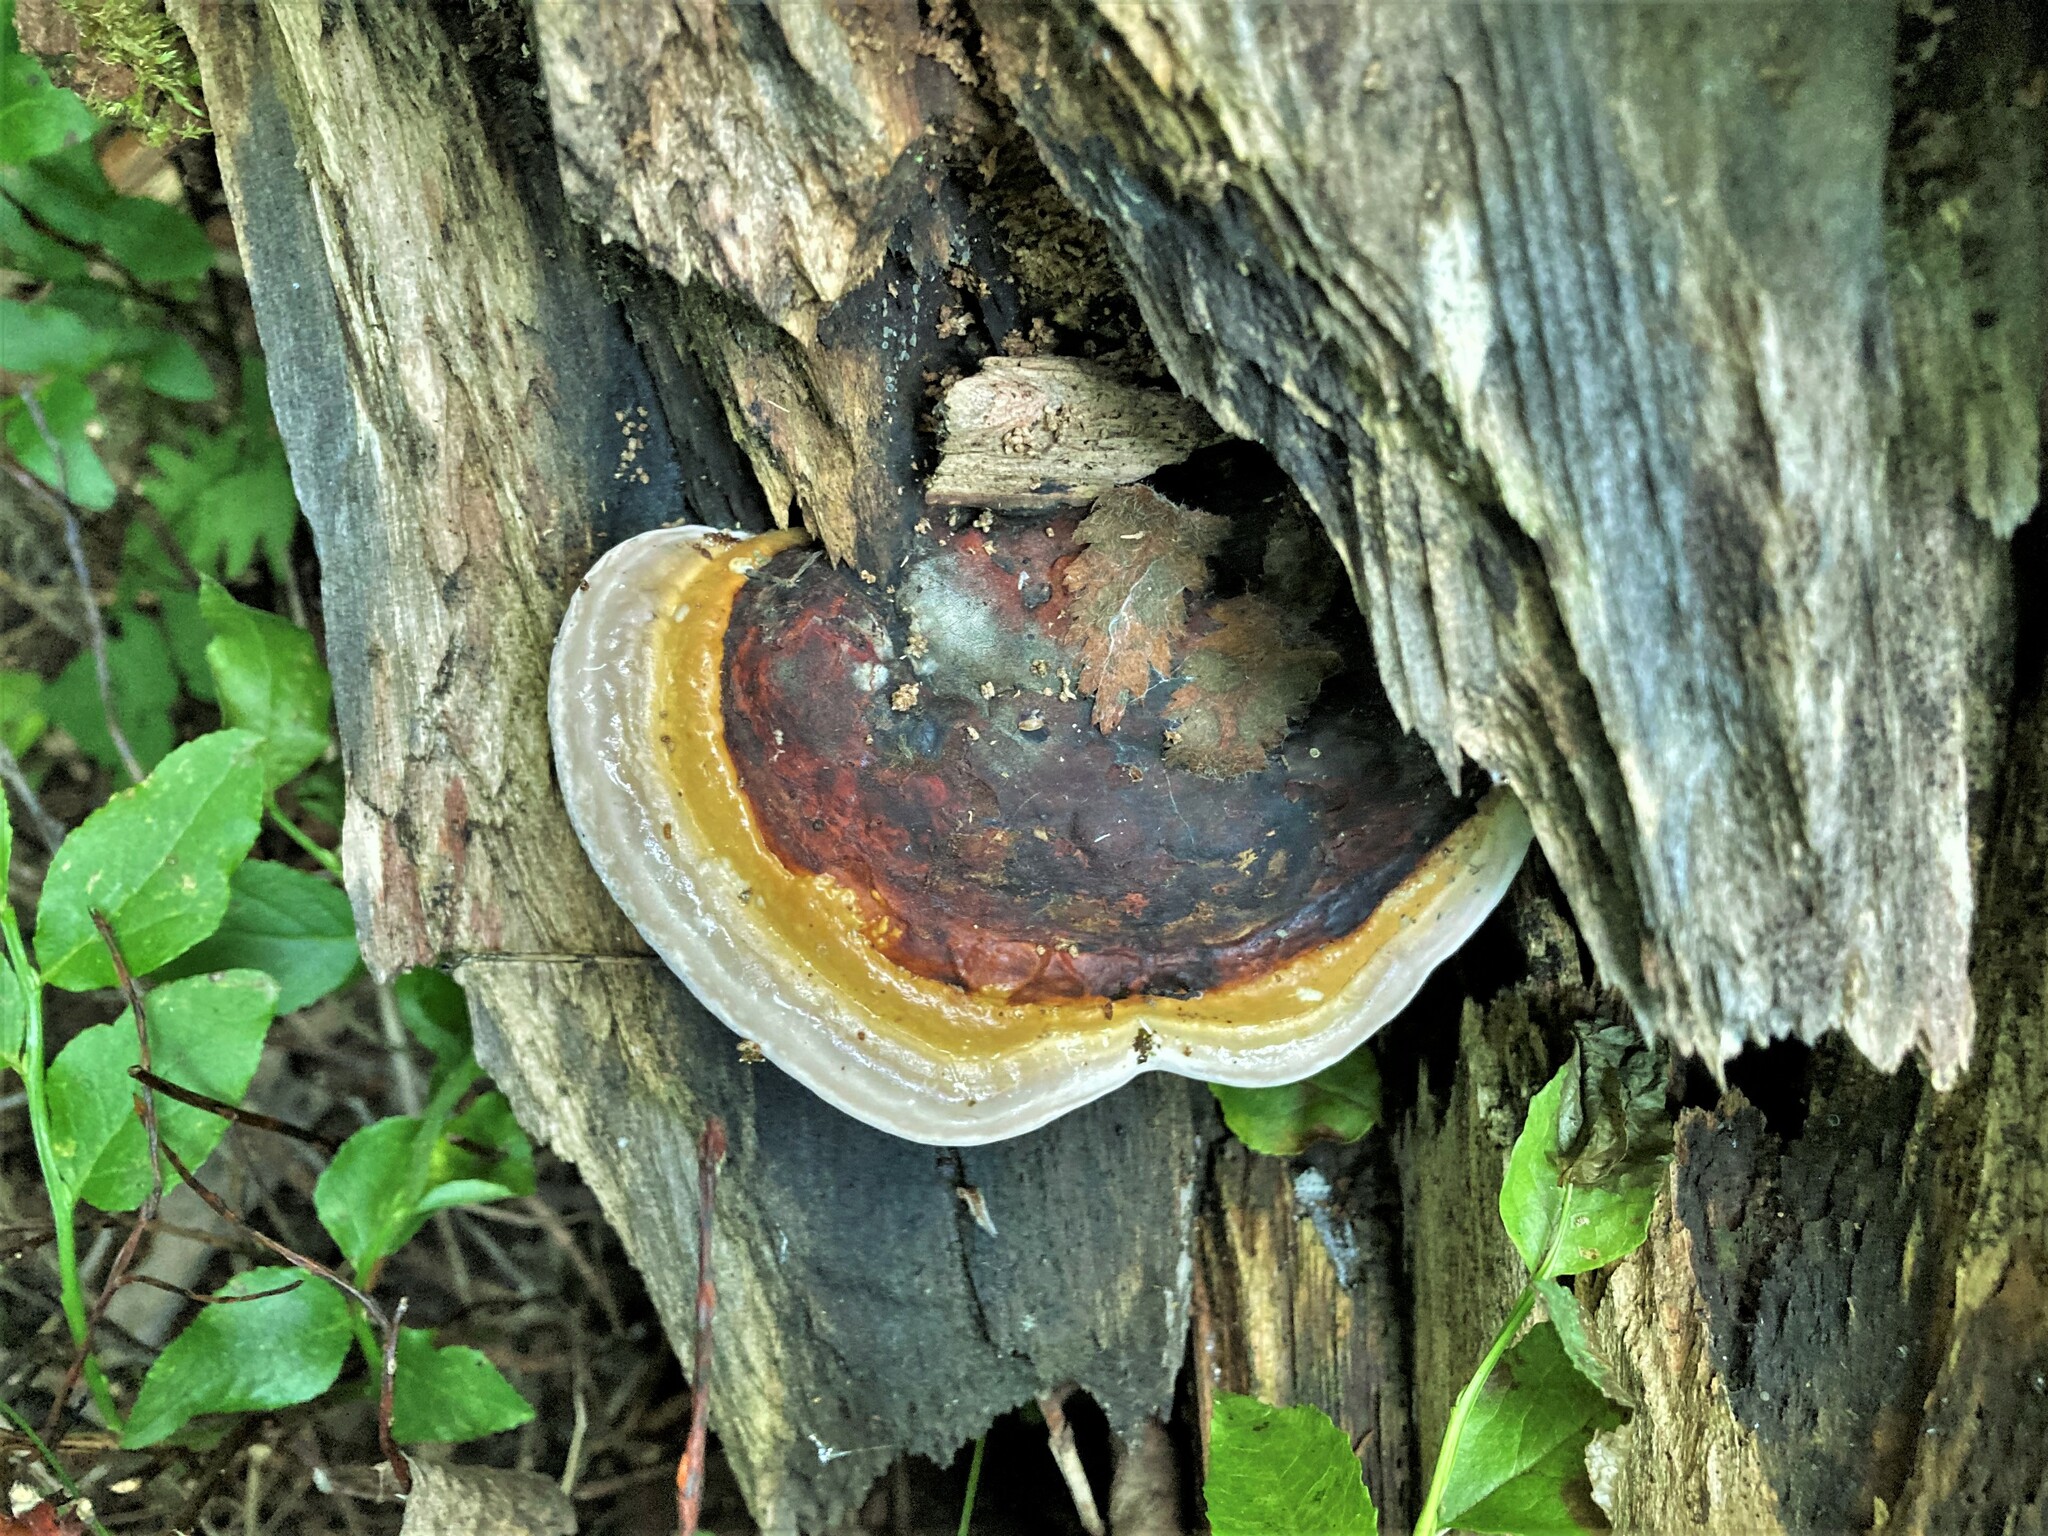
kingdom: Fungi
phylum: Basidiomycota
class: Agaricomycetes
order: Polyporales
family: Fomitopsidaceae
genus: Fomitopsis
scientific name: Fomitopsis pinicola
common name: Red-belted bracket
